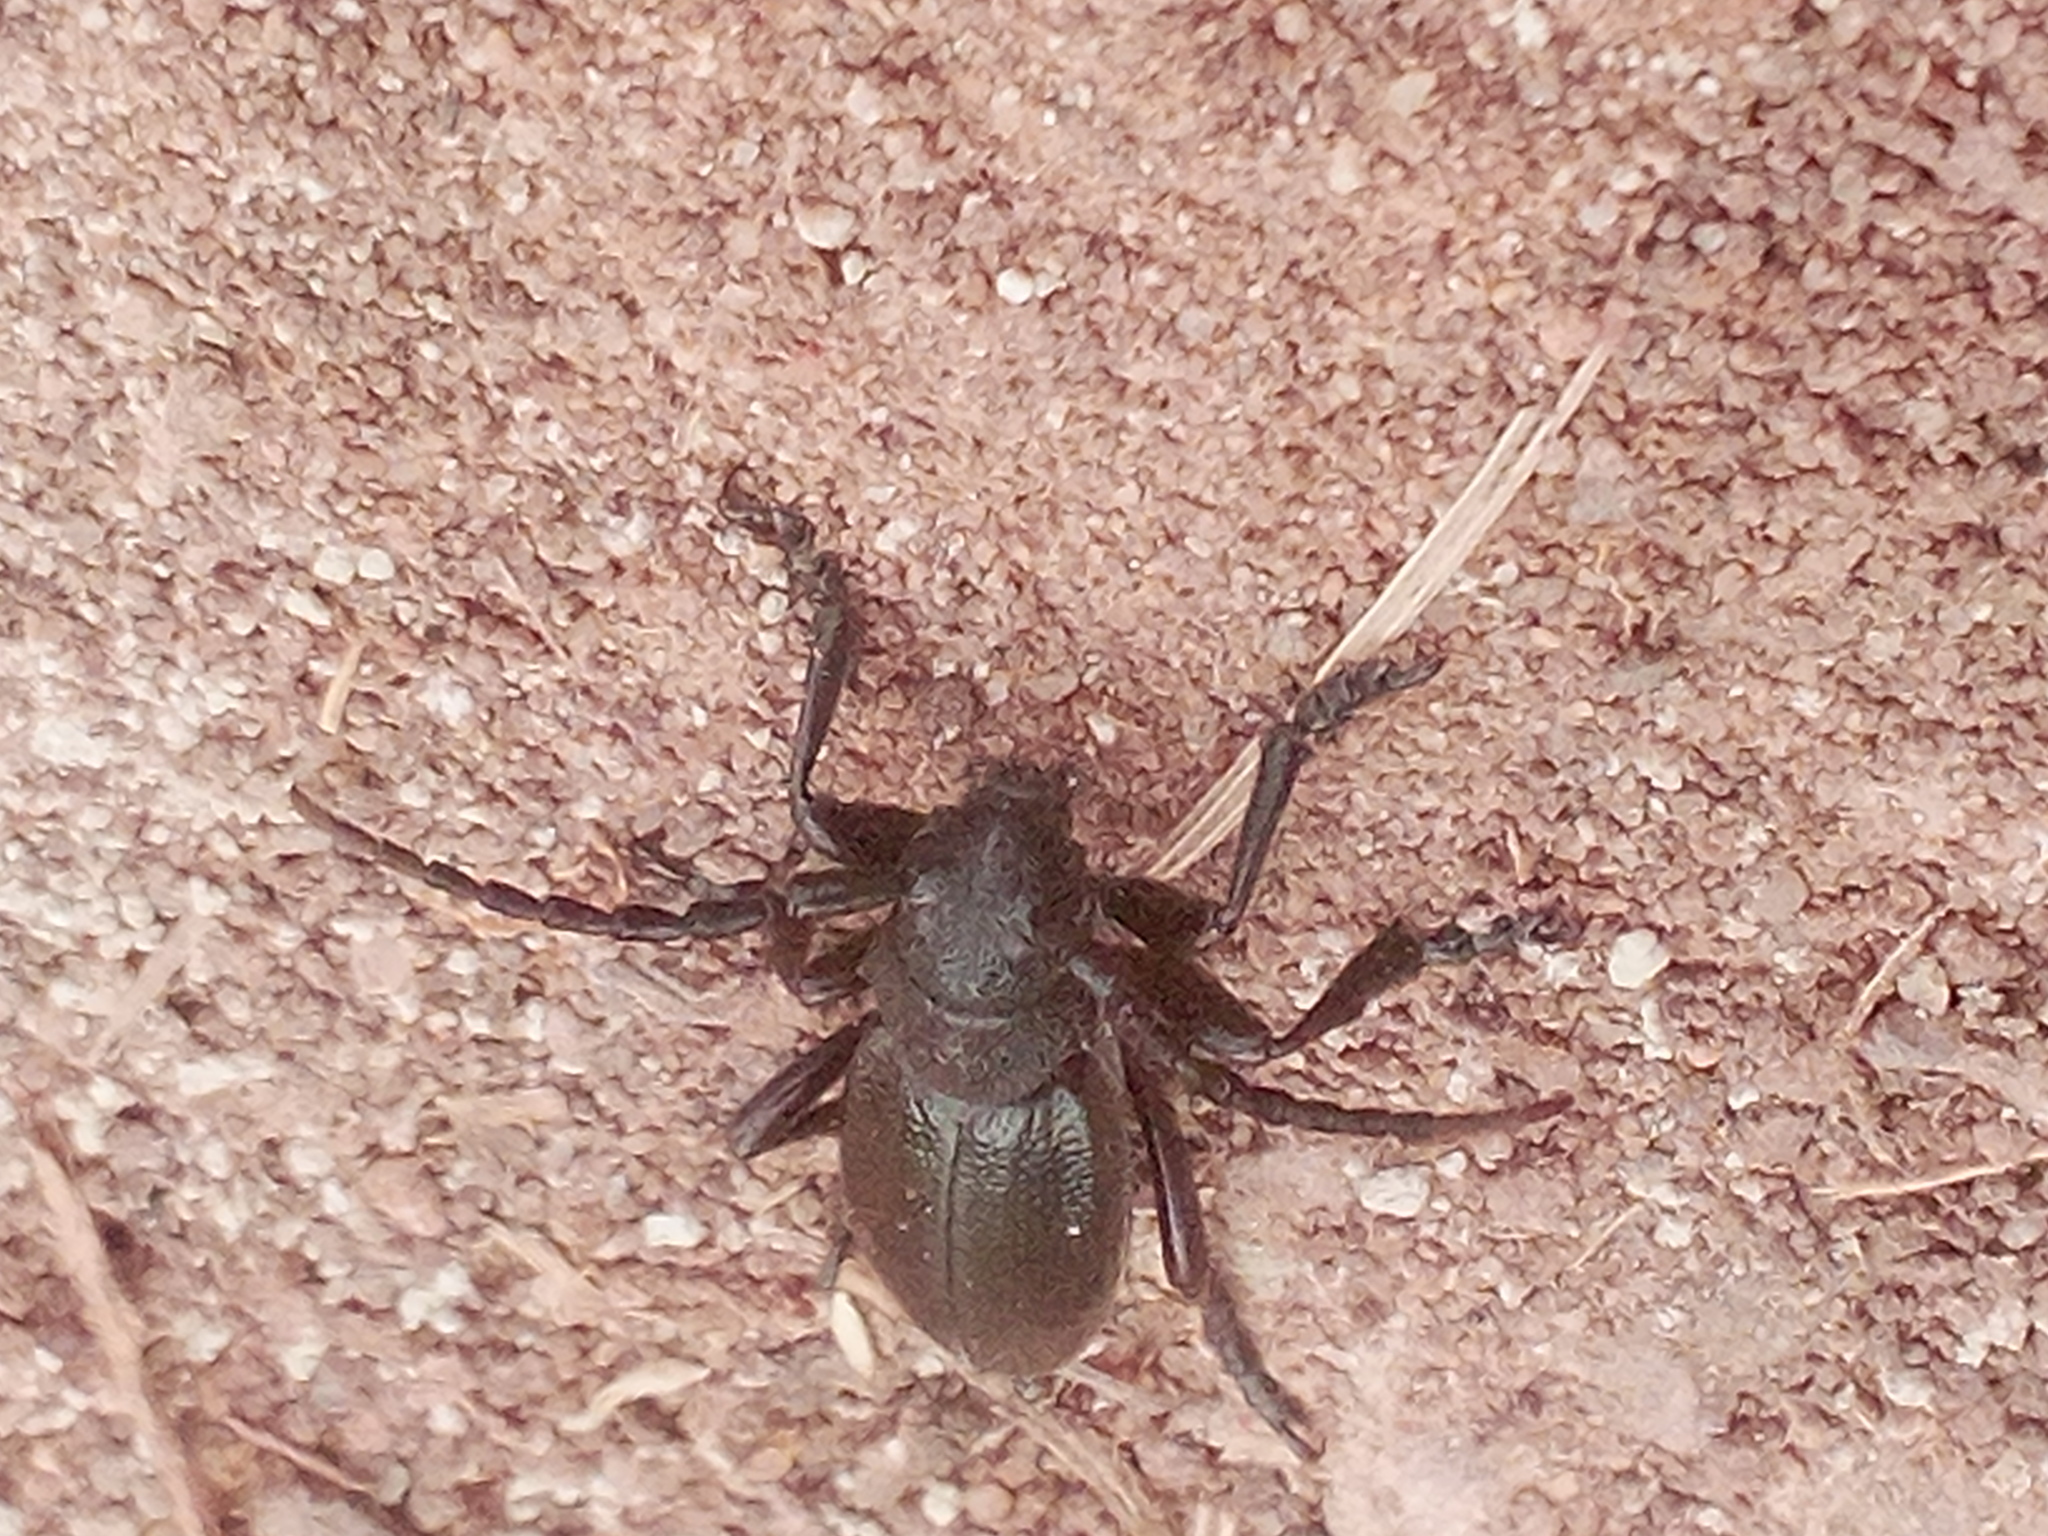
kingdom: Animalia
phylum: Arthropoda
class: Insecta
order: Coleoptera
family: Cerambycidae
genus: Dorcadion
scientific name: Dorcadion carinatum
